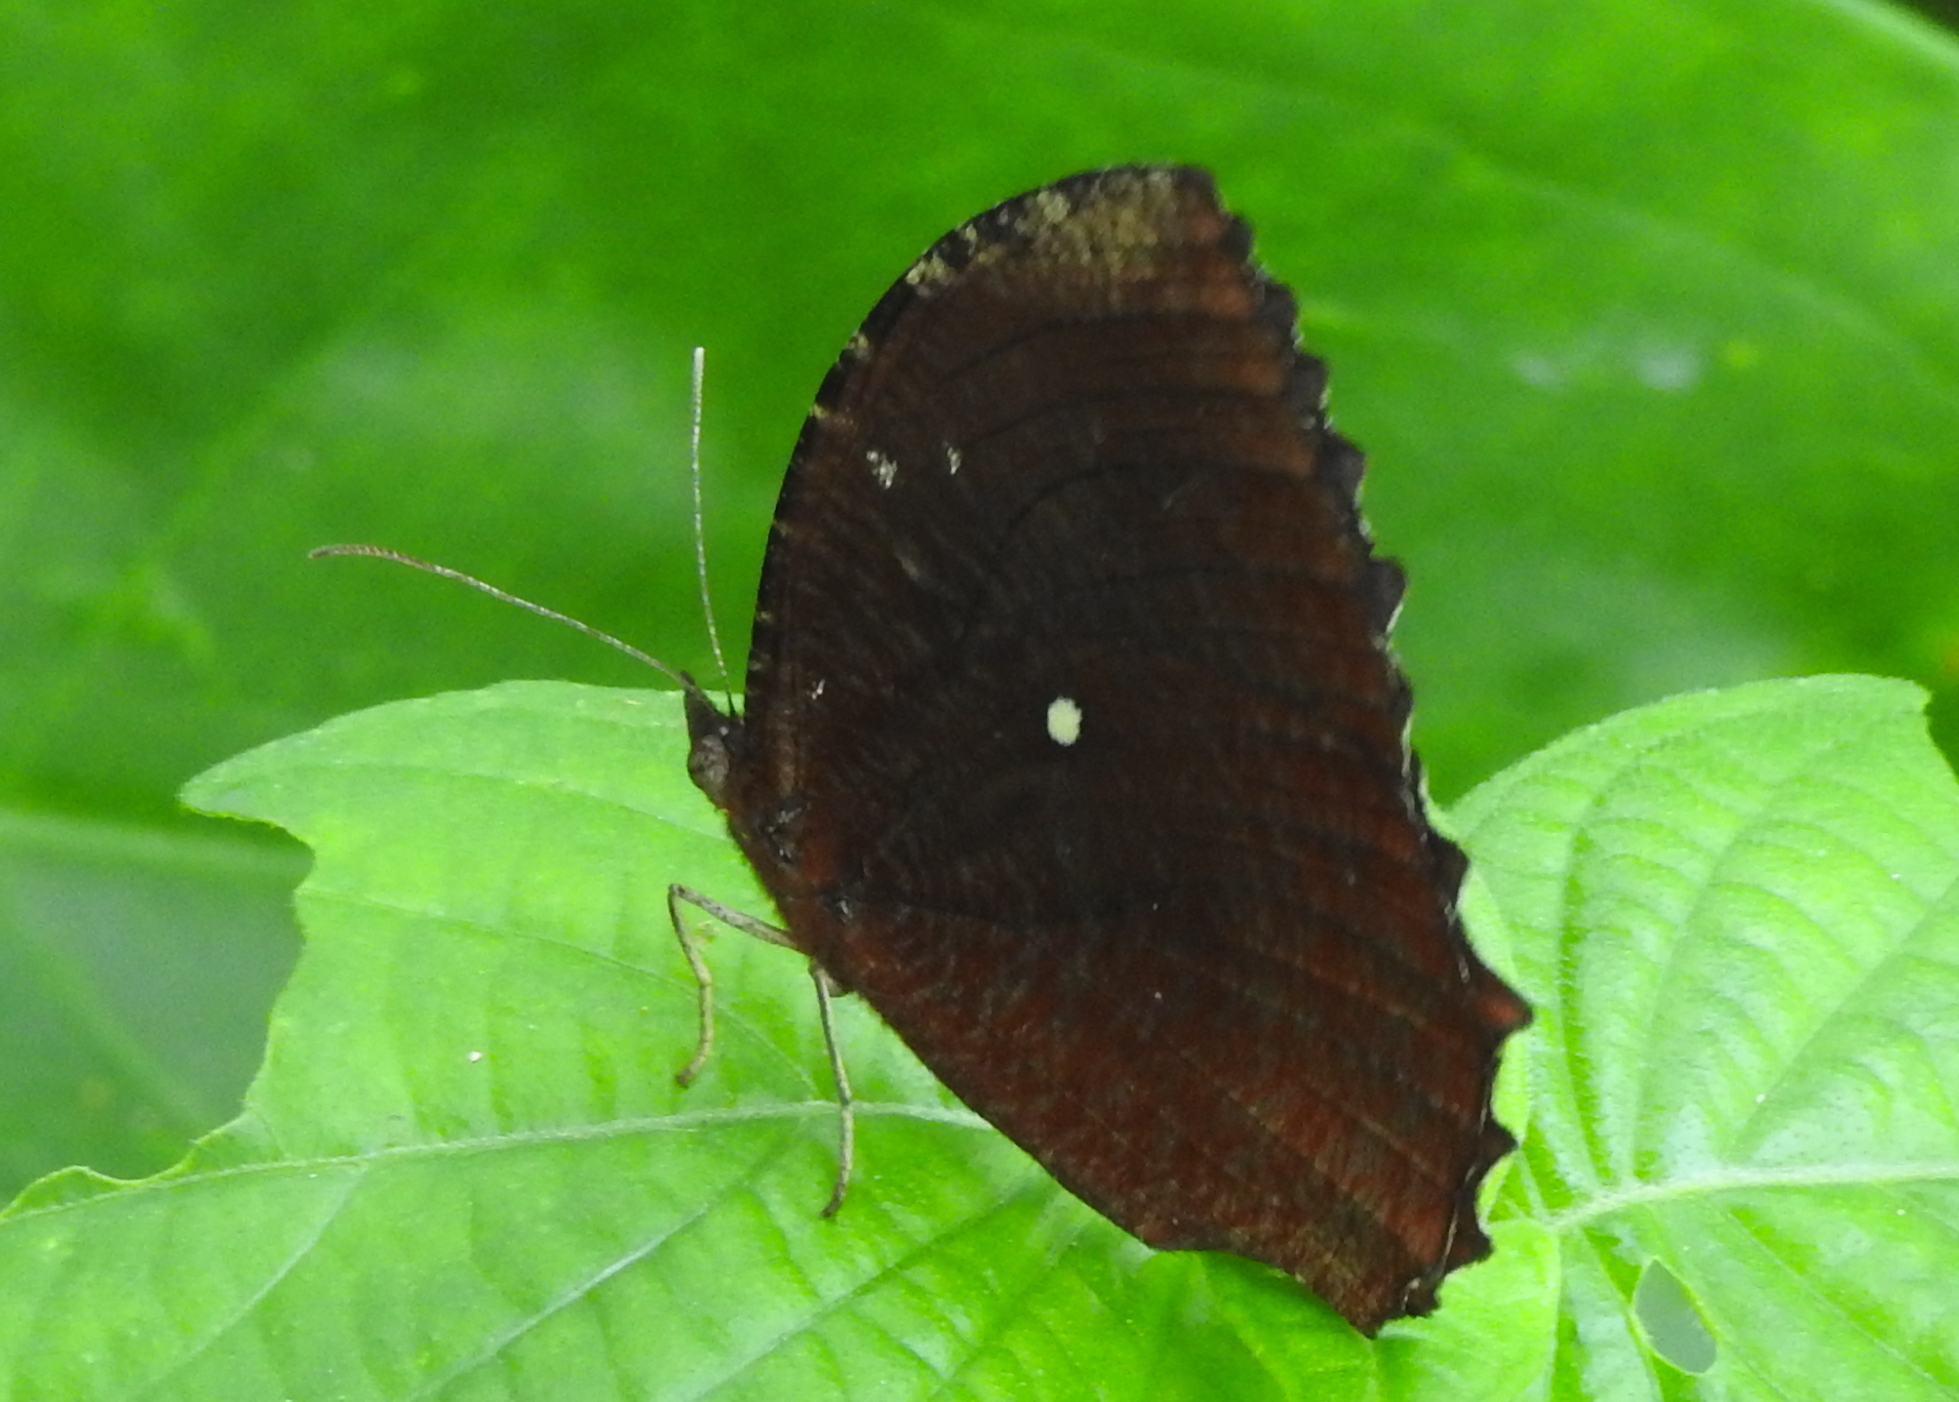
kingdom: Animalia
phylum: Arthropoda
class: Insecta
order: Lepidoptera
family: Nymphalidae
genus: Elymnias
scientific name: Elymnias hypermnestra
